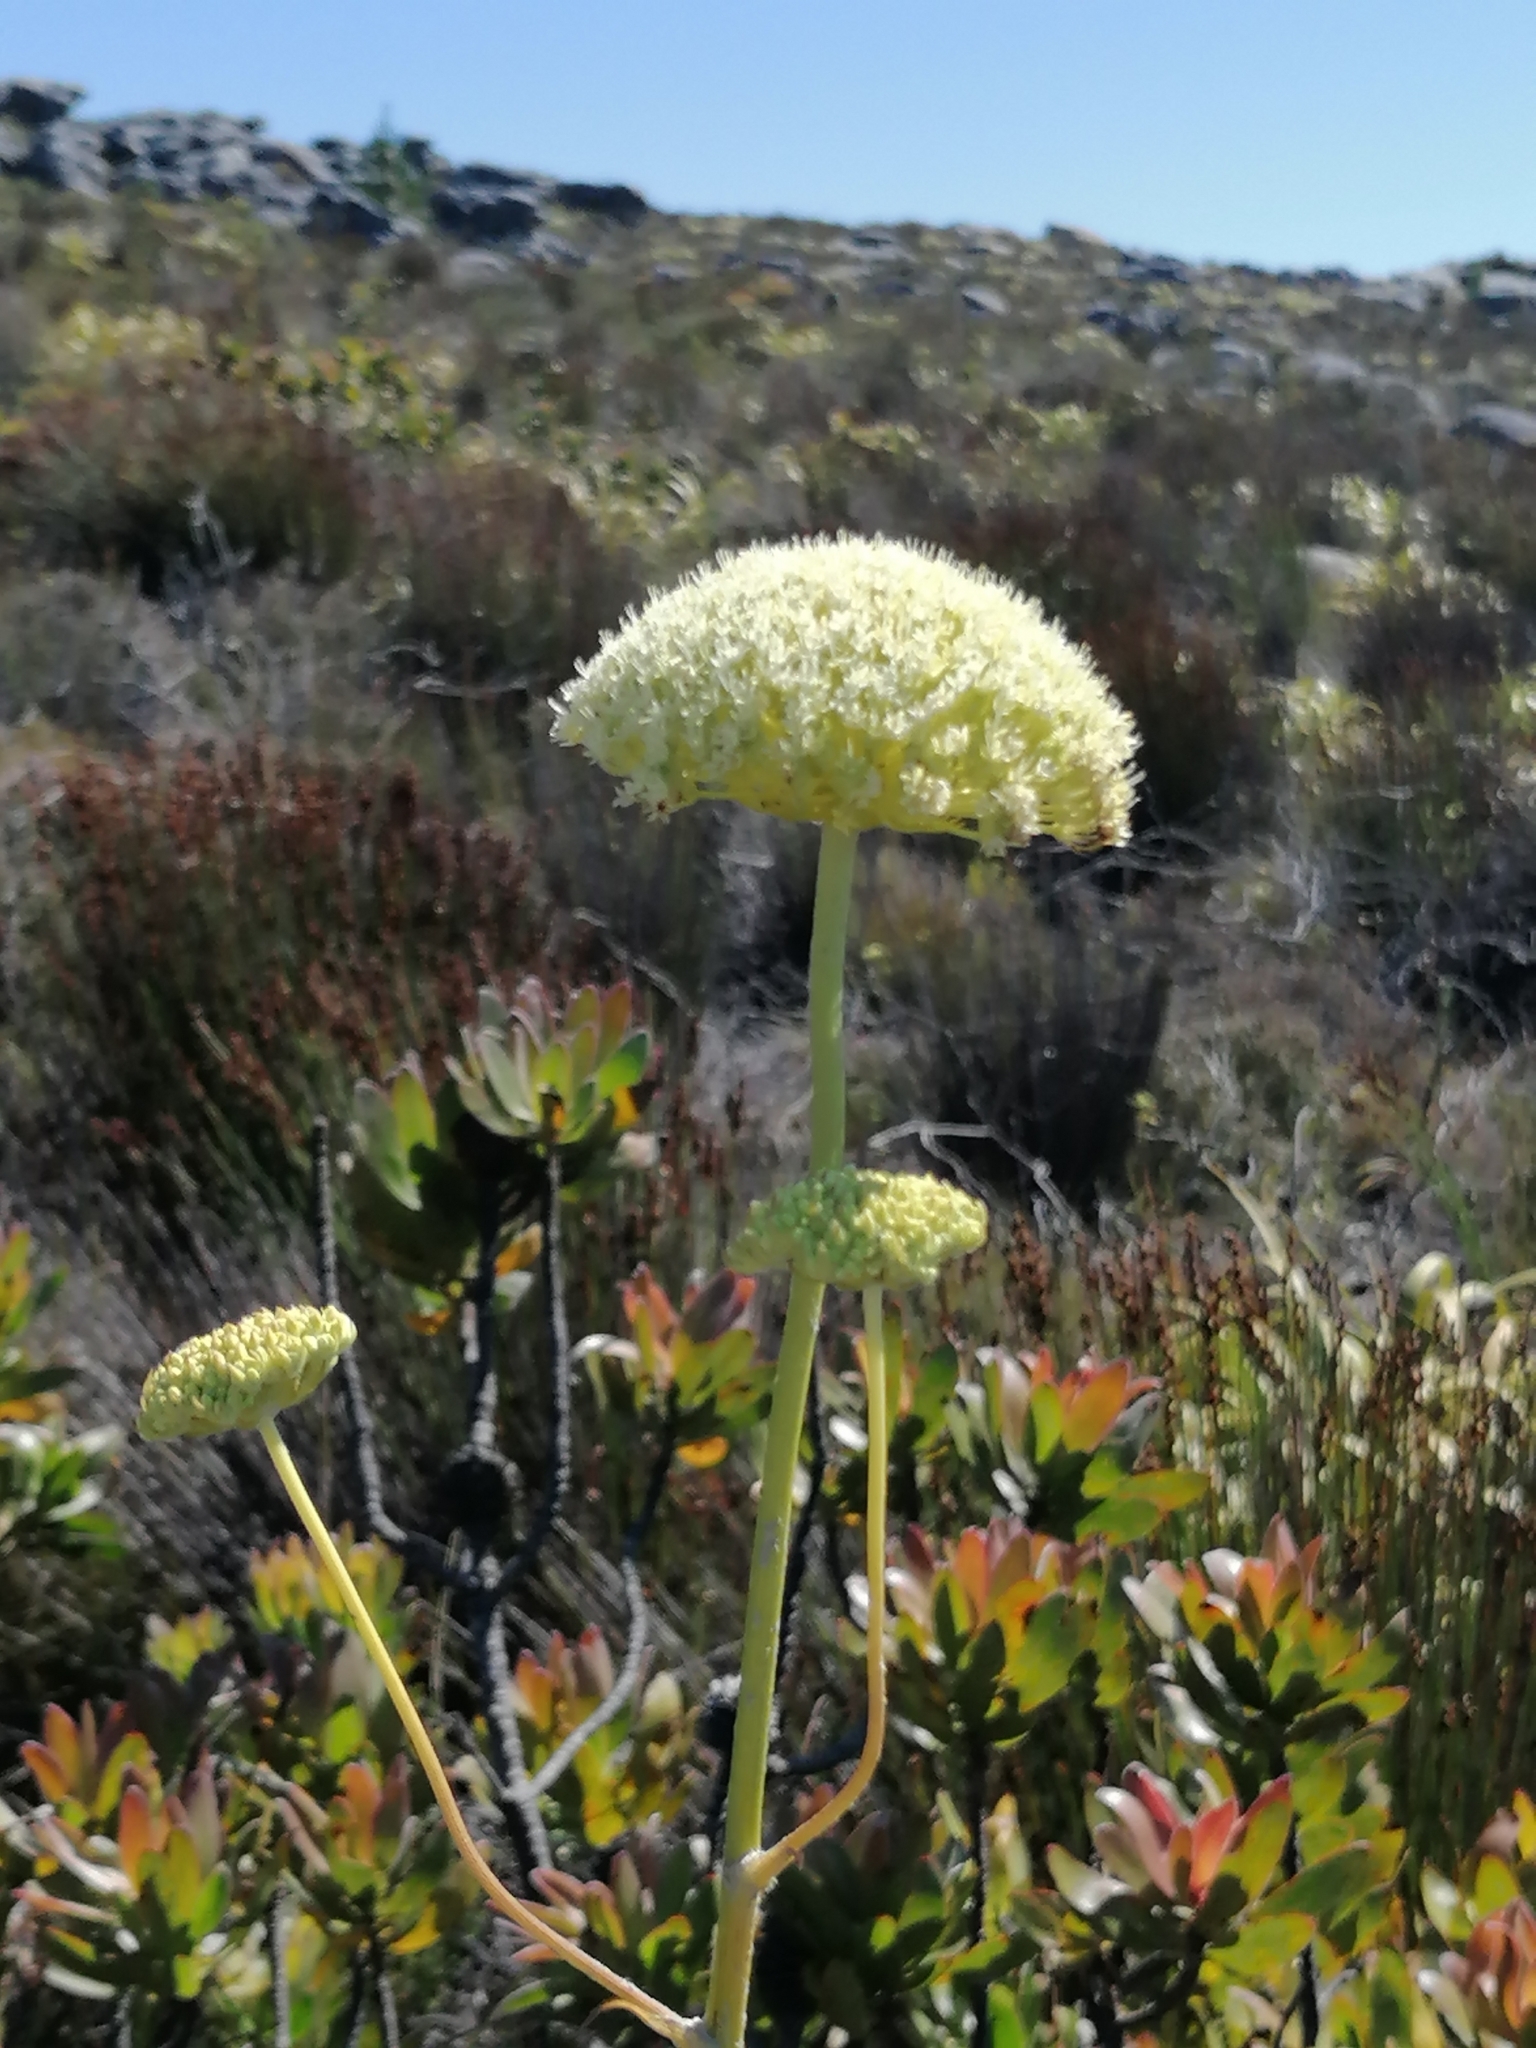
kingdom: Plantae
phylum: Tracheophyta
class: Magnoliopsida
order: Apiales
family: Apiaceae
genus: Hermas
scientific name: Hermas villosa
